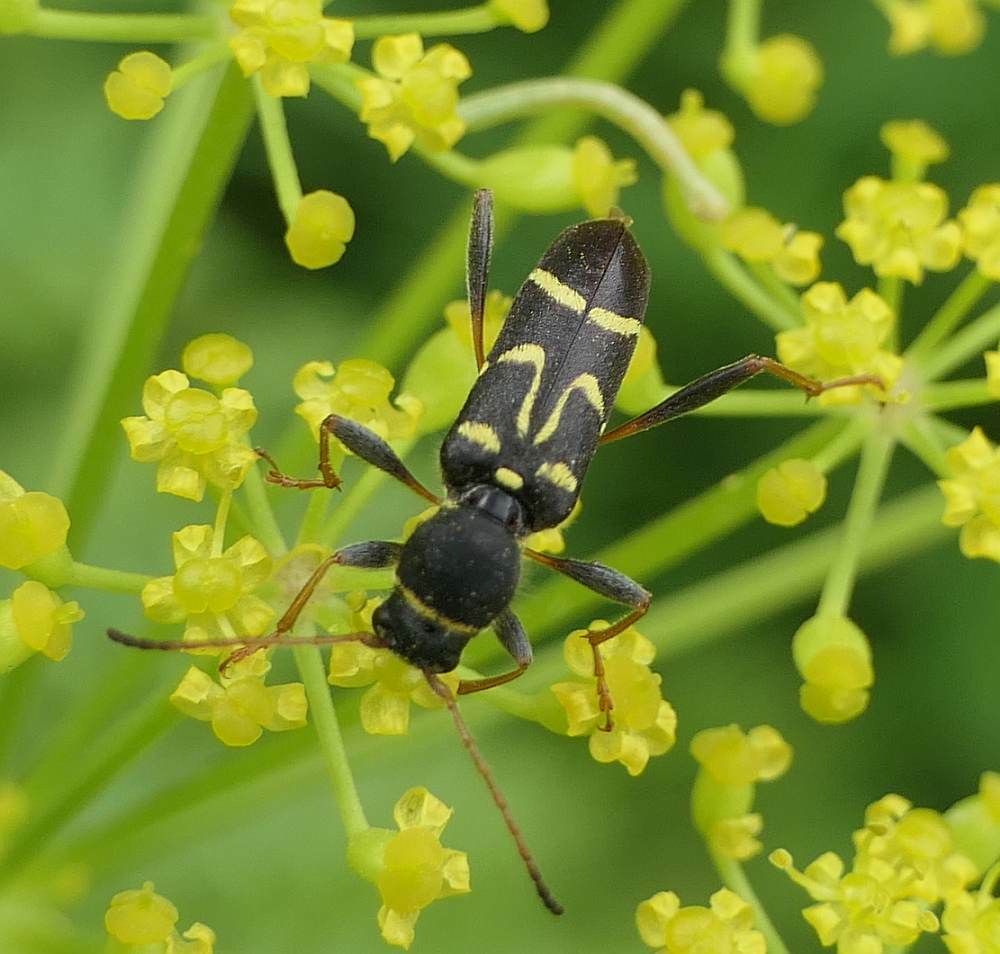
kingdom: Animalia
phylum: Arthropoda
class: Insecta
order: Coleoptera
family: Cerambycidae
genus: Clytus
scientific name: Clytus ruricola
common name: Round-necked longhorn beetle
